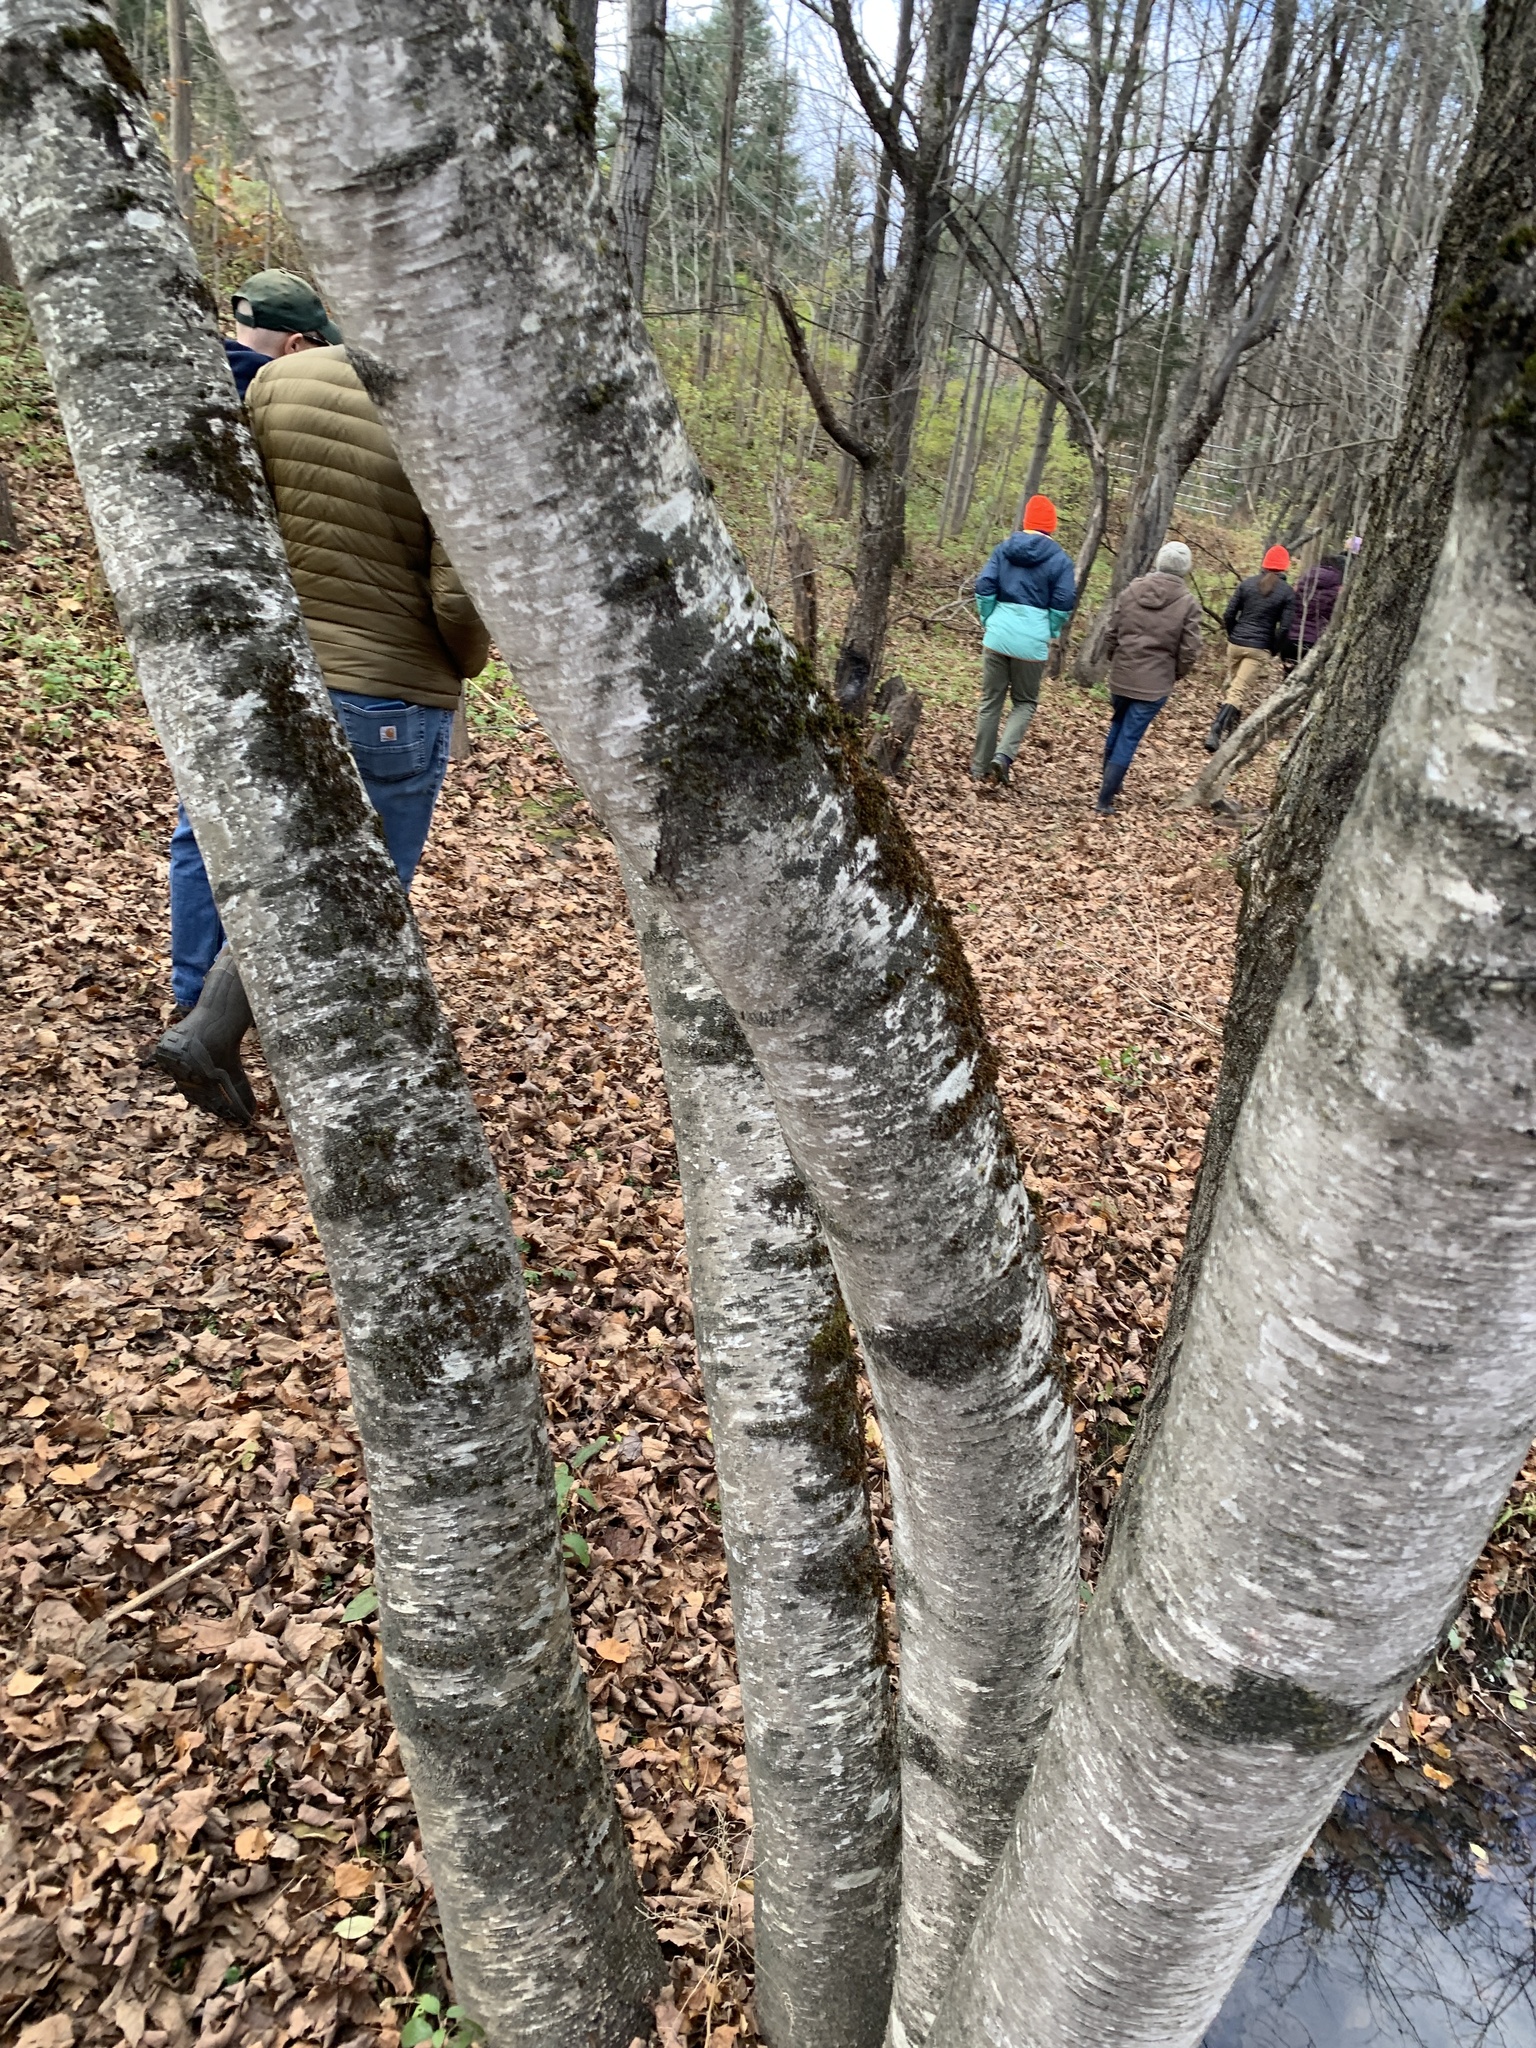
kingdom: Plantae
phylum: Tracheophyta
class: Magnoliopsida
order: Fagales
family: Betulaceae
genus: Betula
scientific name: Betula populifolia
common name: Fire birch
